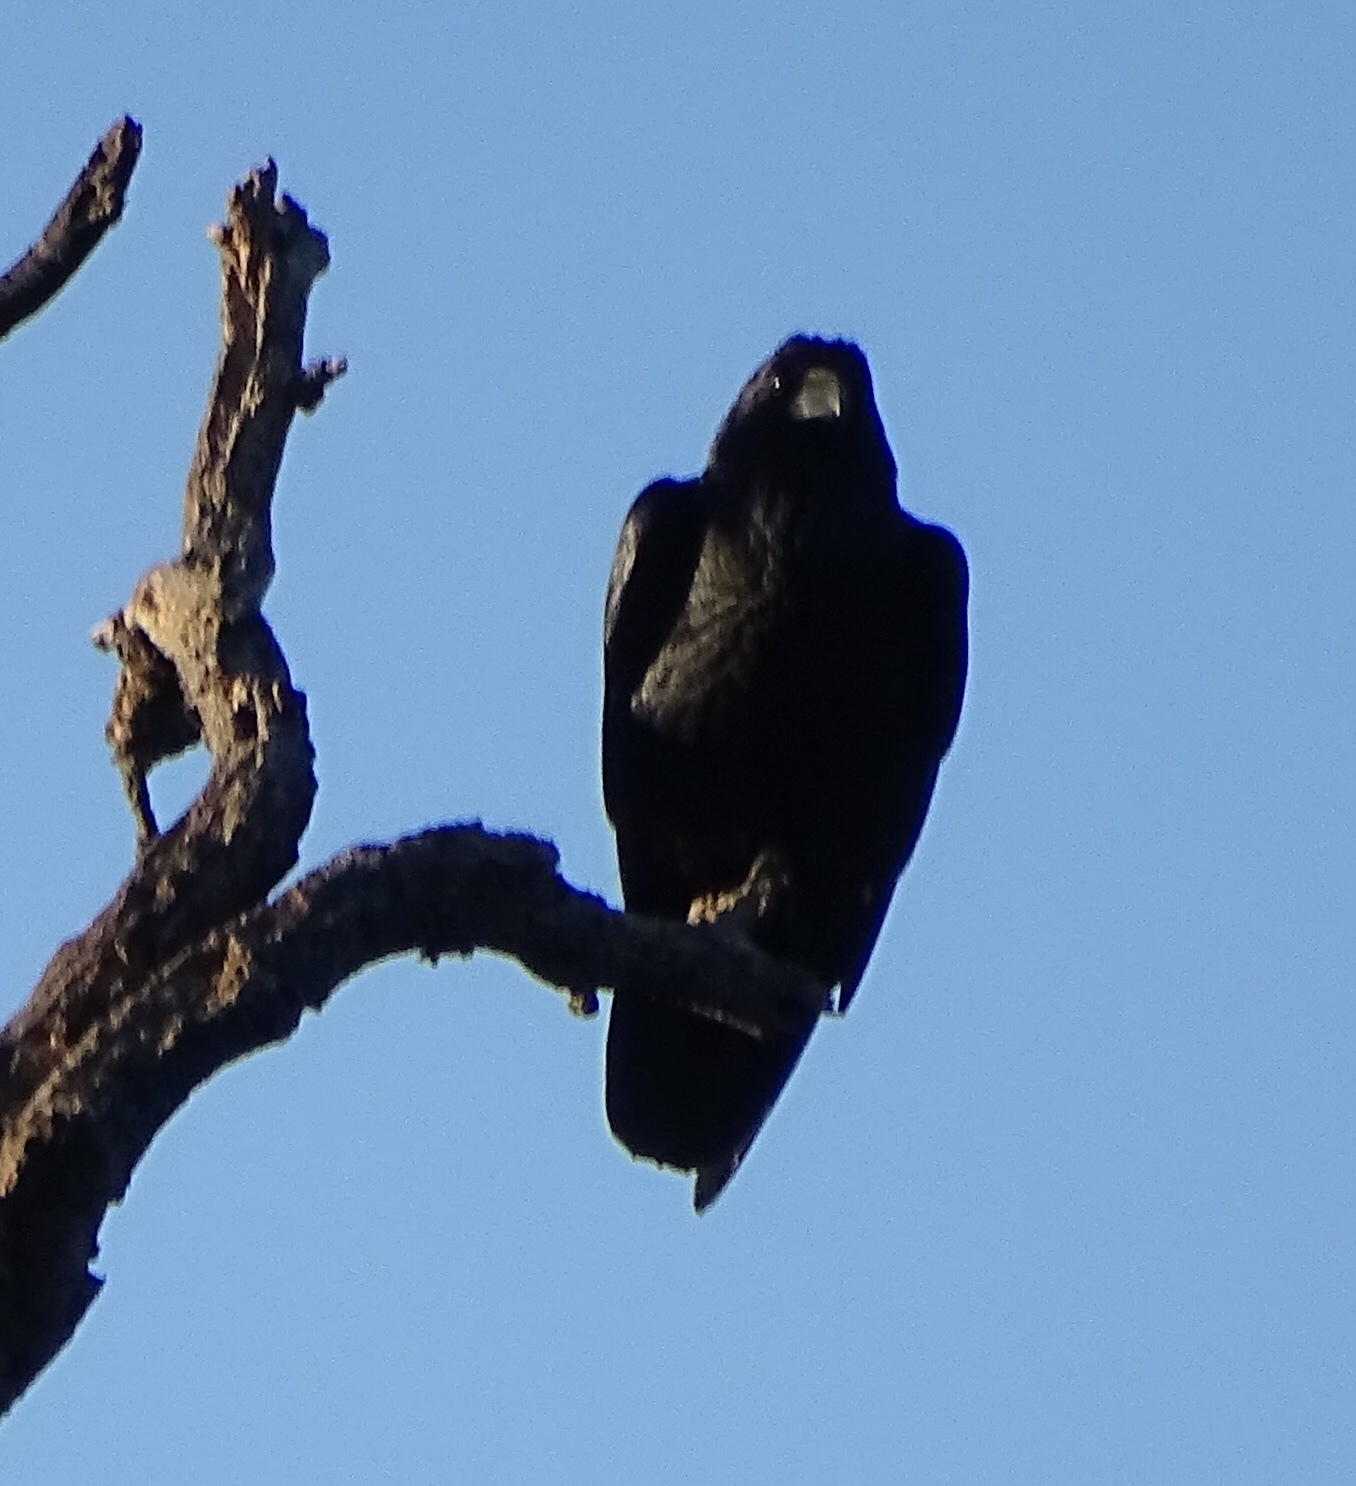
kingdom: Animalia
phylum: Chordata
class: Aves
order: Passeriformes
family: Corvidae
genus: Corvus
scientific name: Corvus brachyrhynchos
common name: American crow
